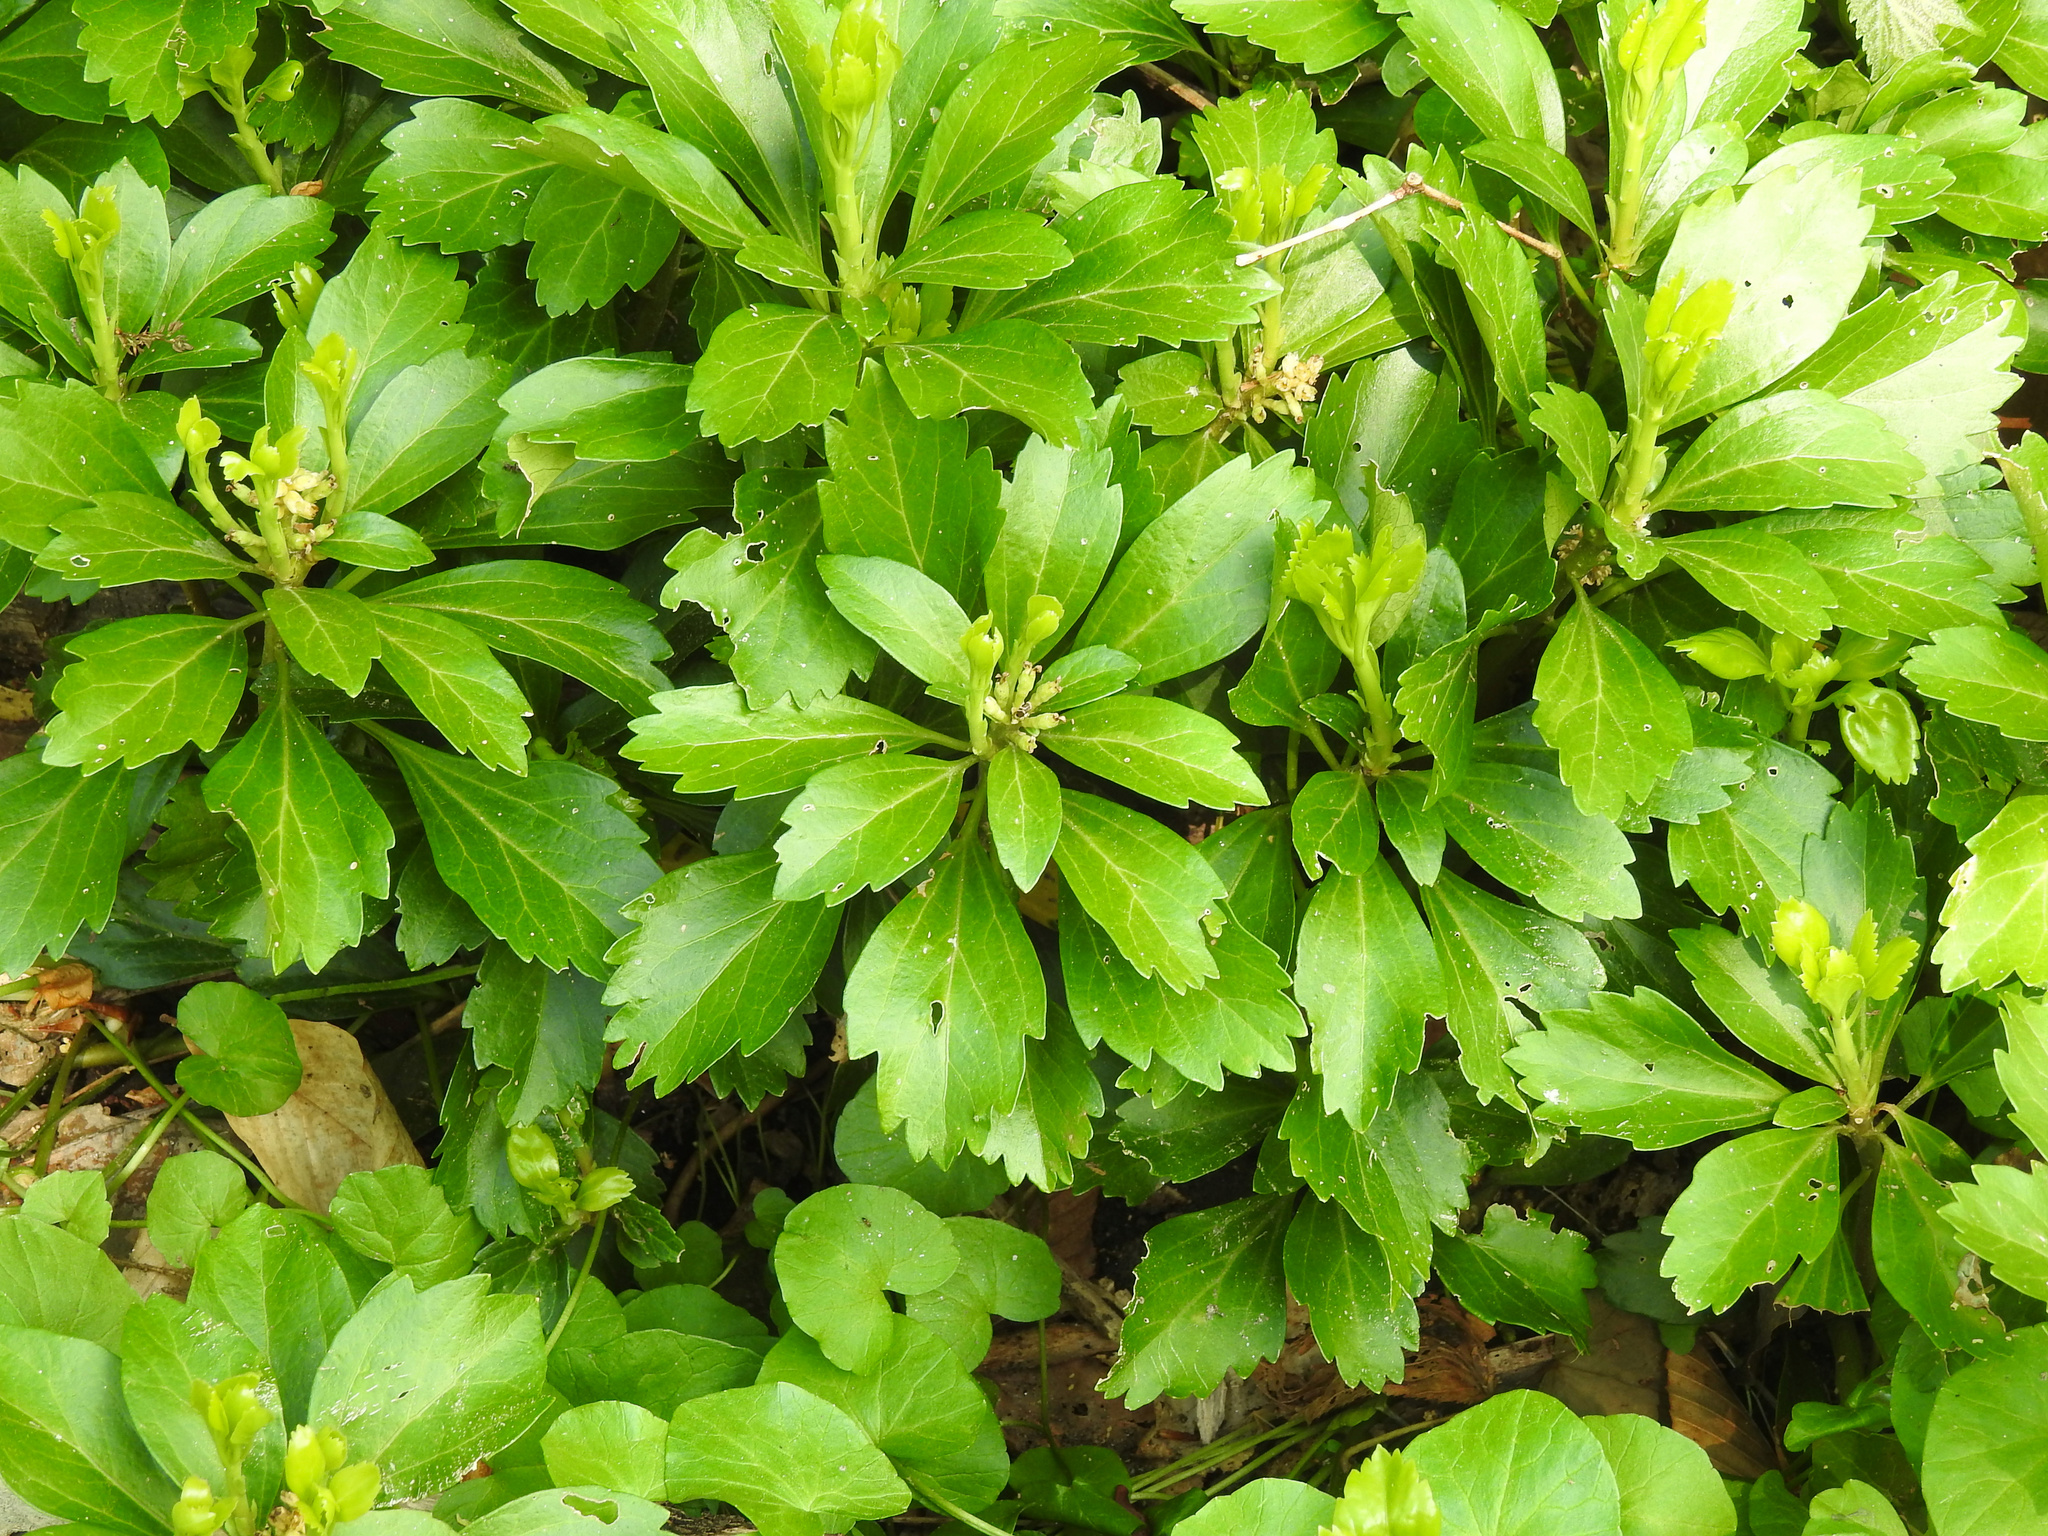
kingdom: Plantae
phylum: Tracheophyta
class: Magnoliopsida
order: Buxales
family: Buxaceae
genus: Pachysandra
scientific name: Pachysandra terminalis
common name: Japanese pachysandra
